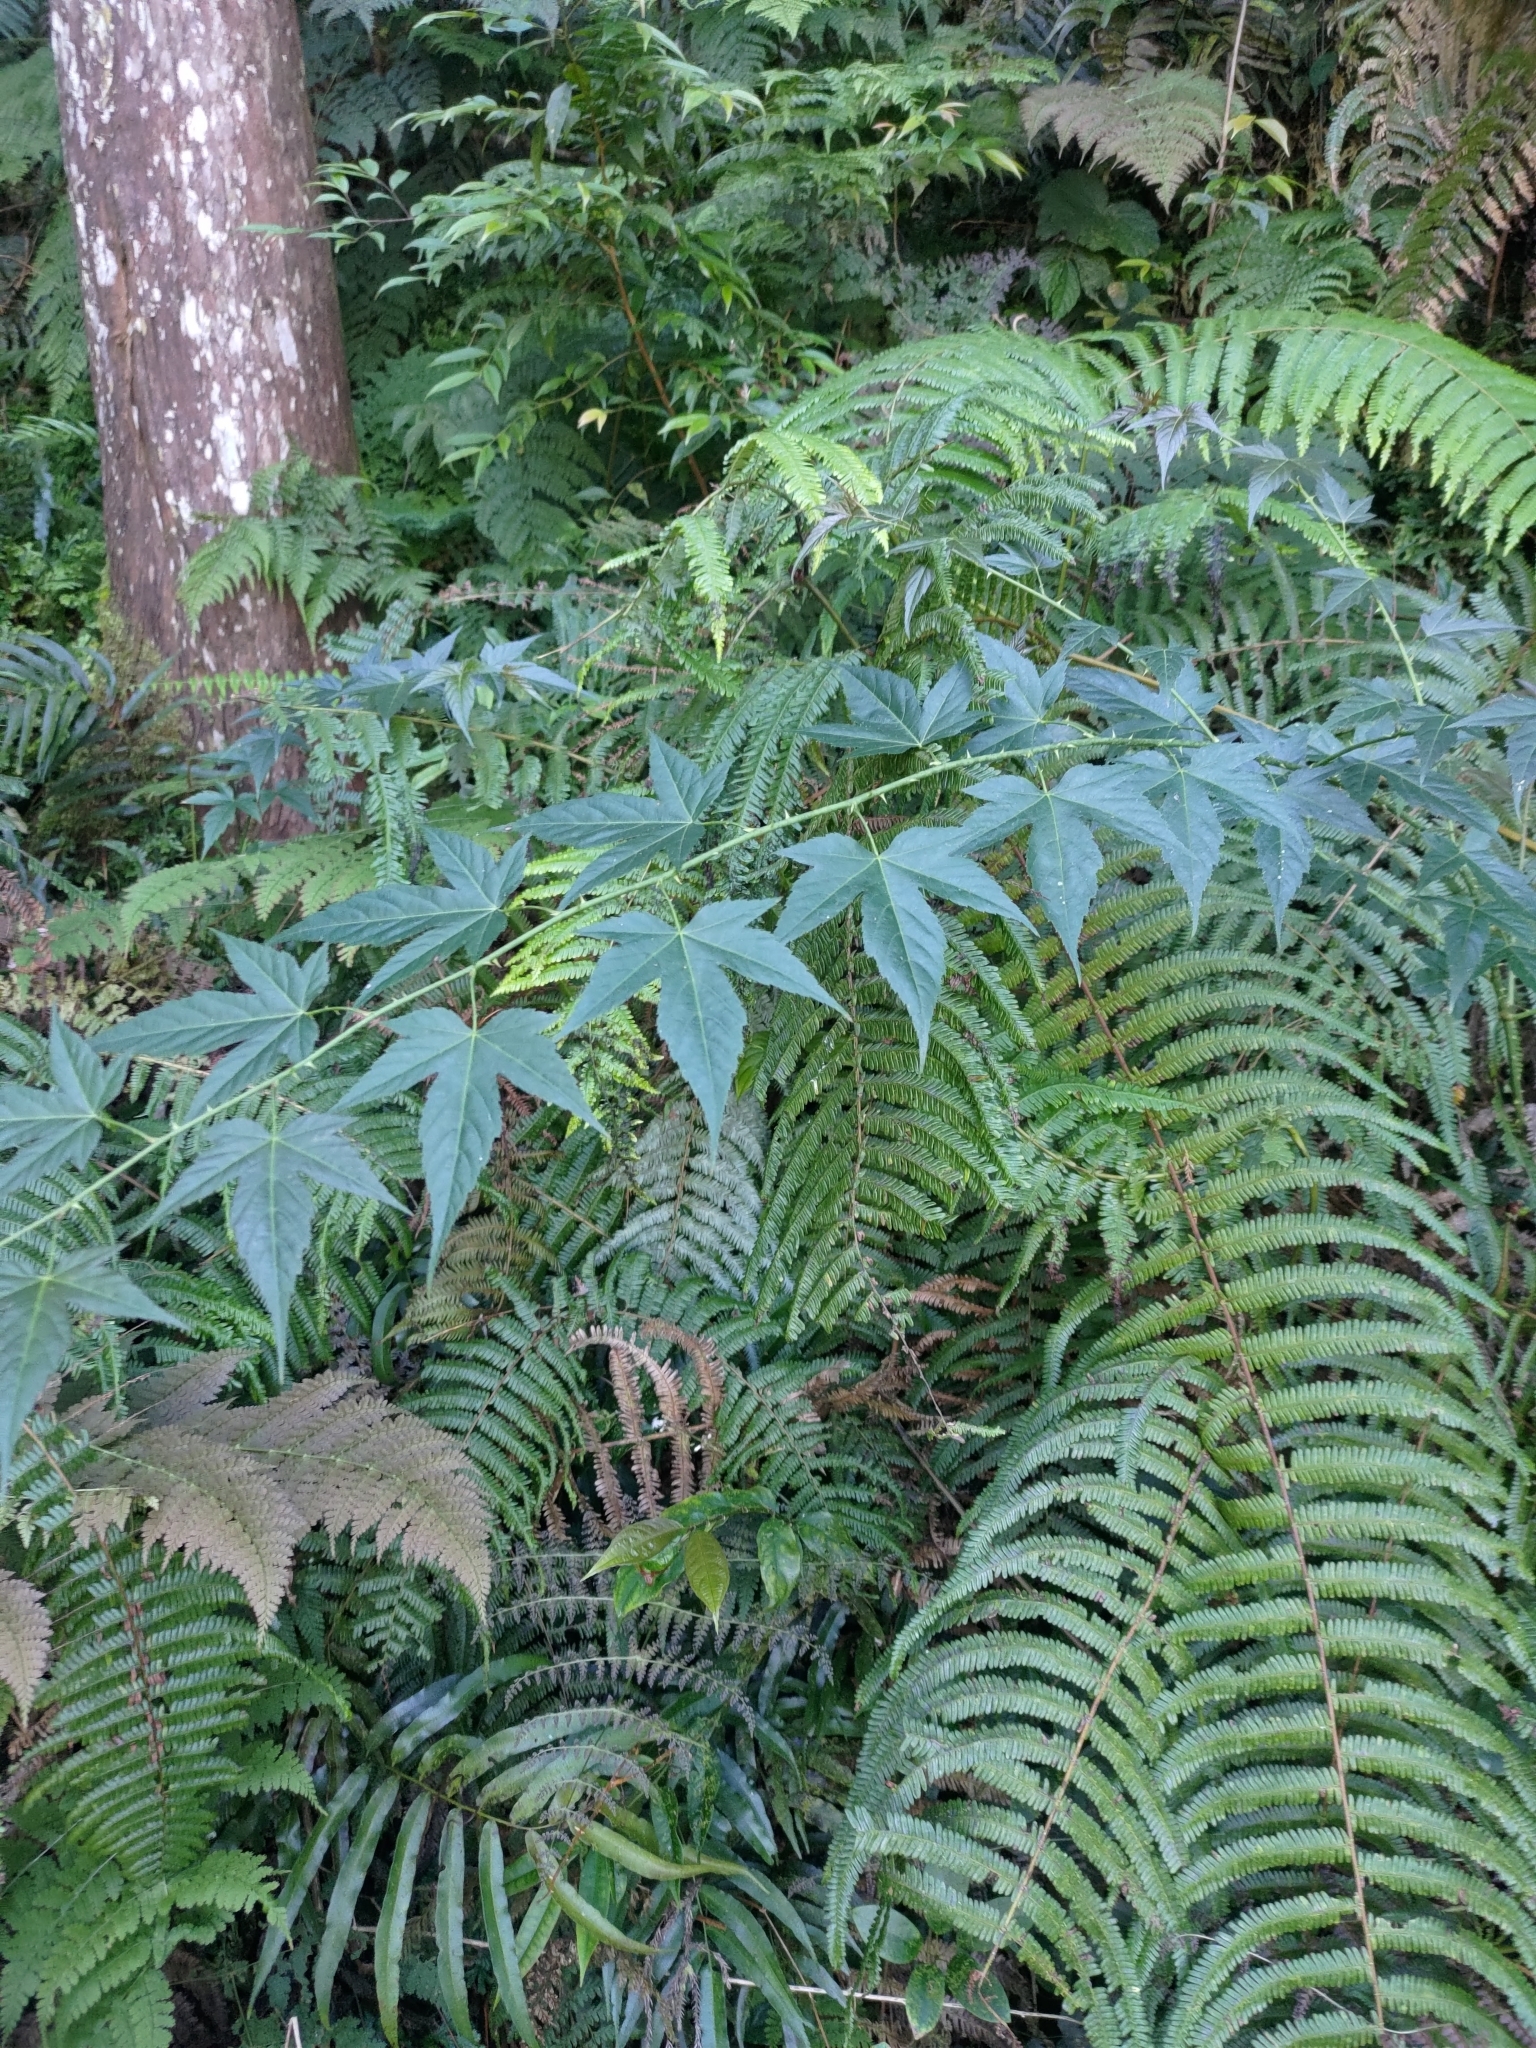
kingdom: Plantae
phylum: Tracheophyta
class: Magnoliopsida
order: Rosales
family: Rosaceae
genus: Rubus
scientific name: Rubus corchorifolius
